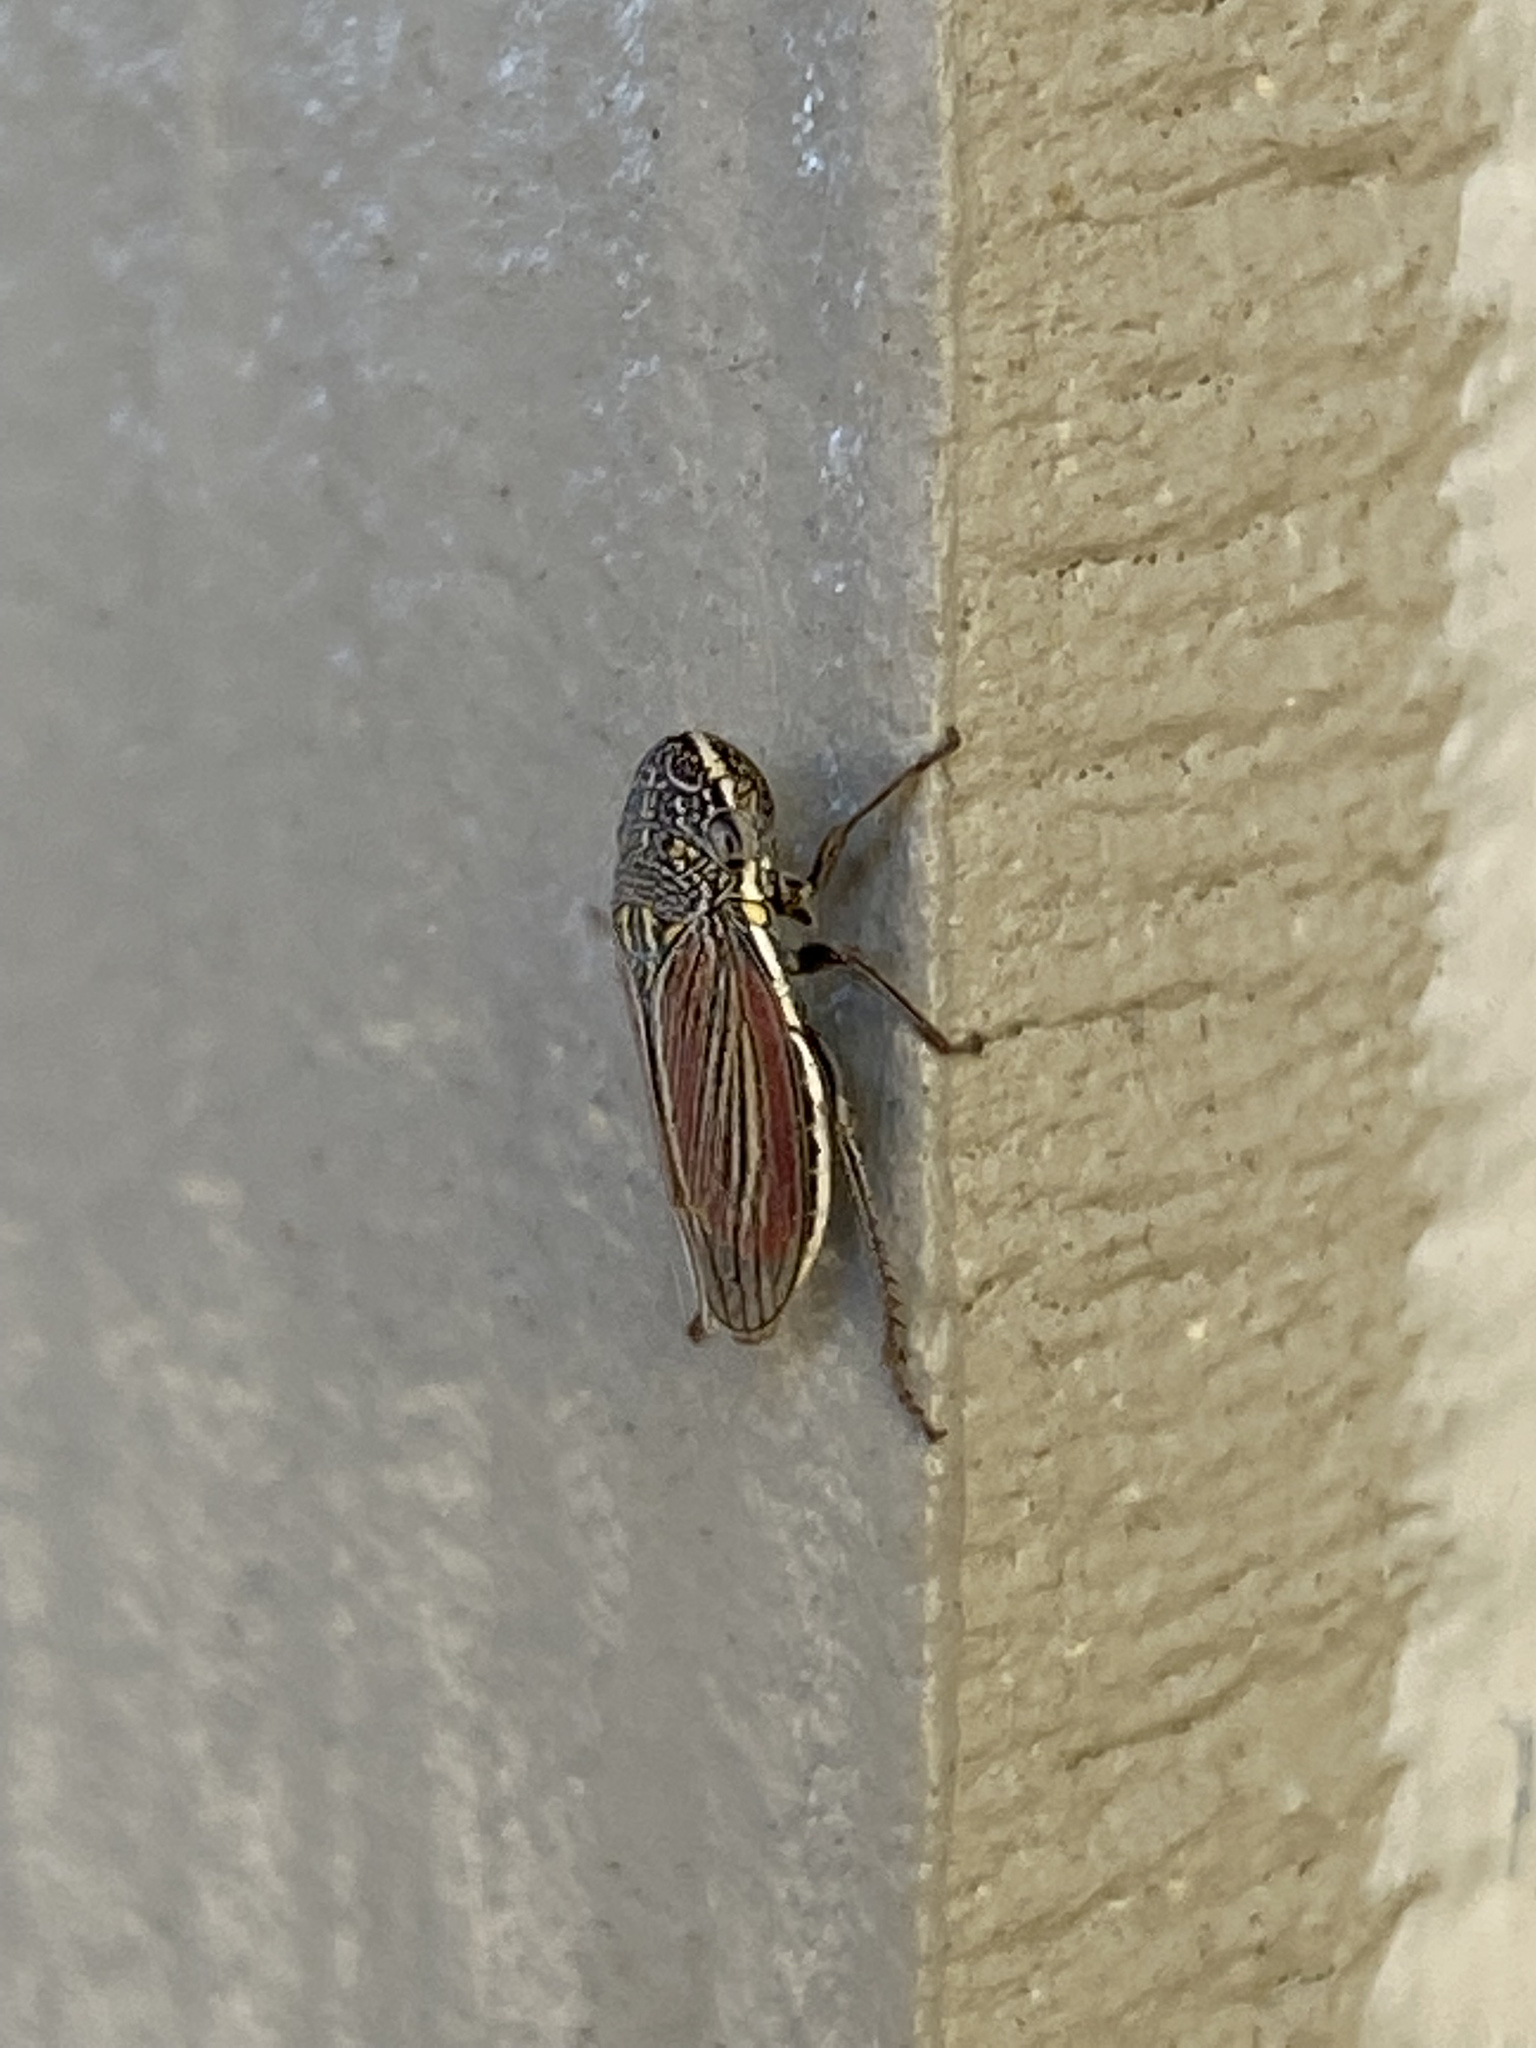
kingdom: Animalia
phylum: Arthropoda
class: Insecta
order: Hemiptera
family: Cicadellidae
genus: Cuerna
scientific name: Cuerna alpina
